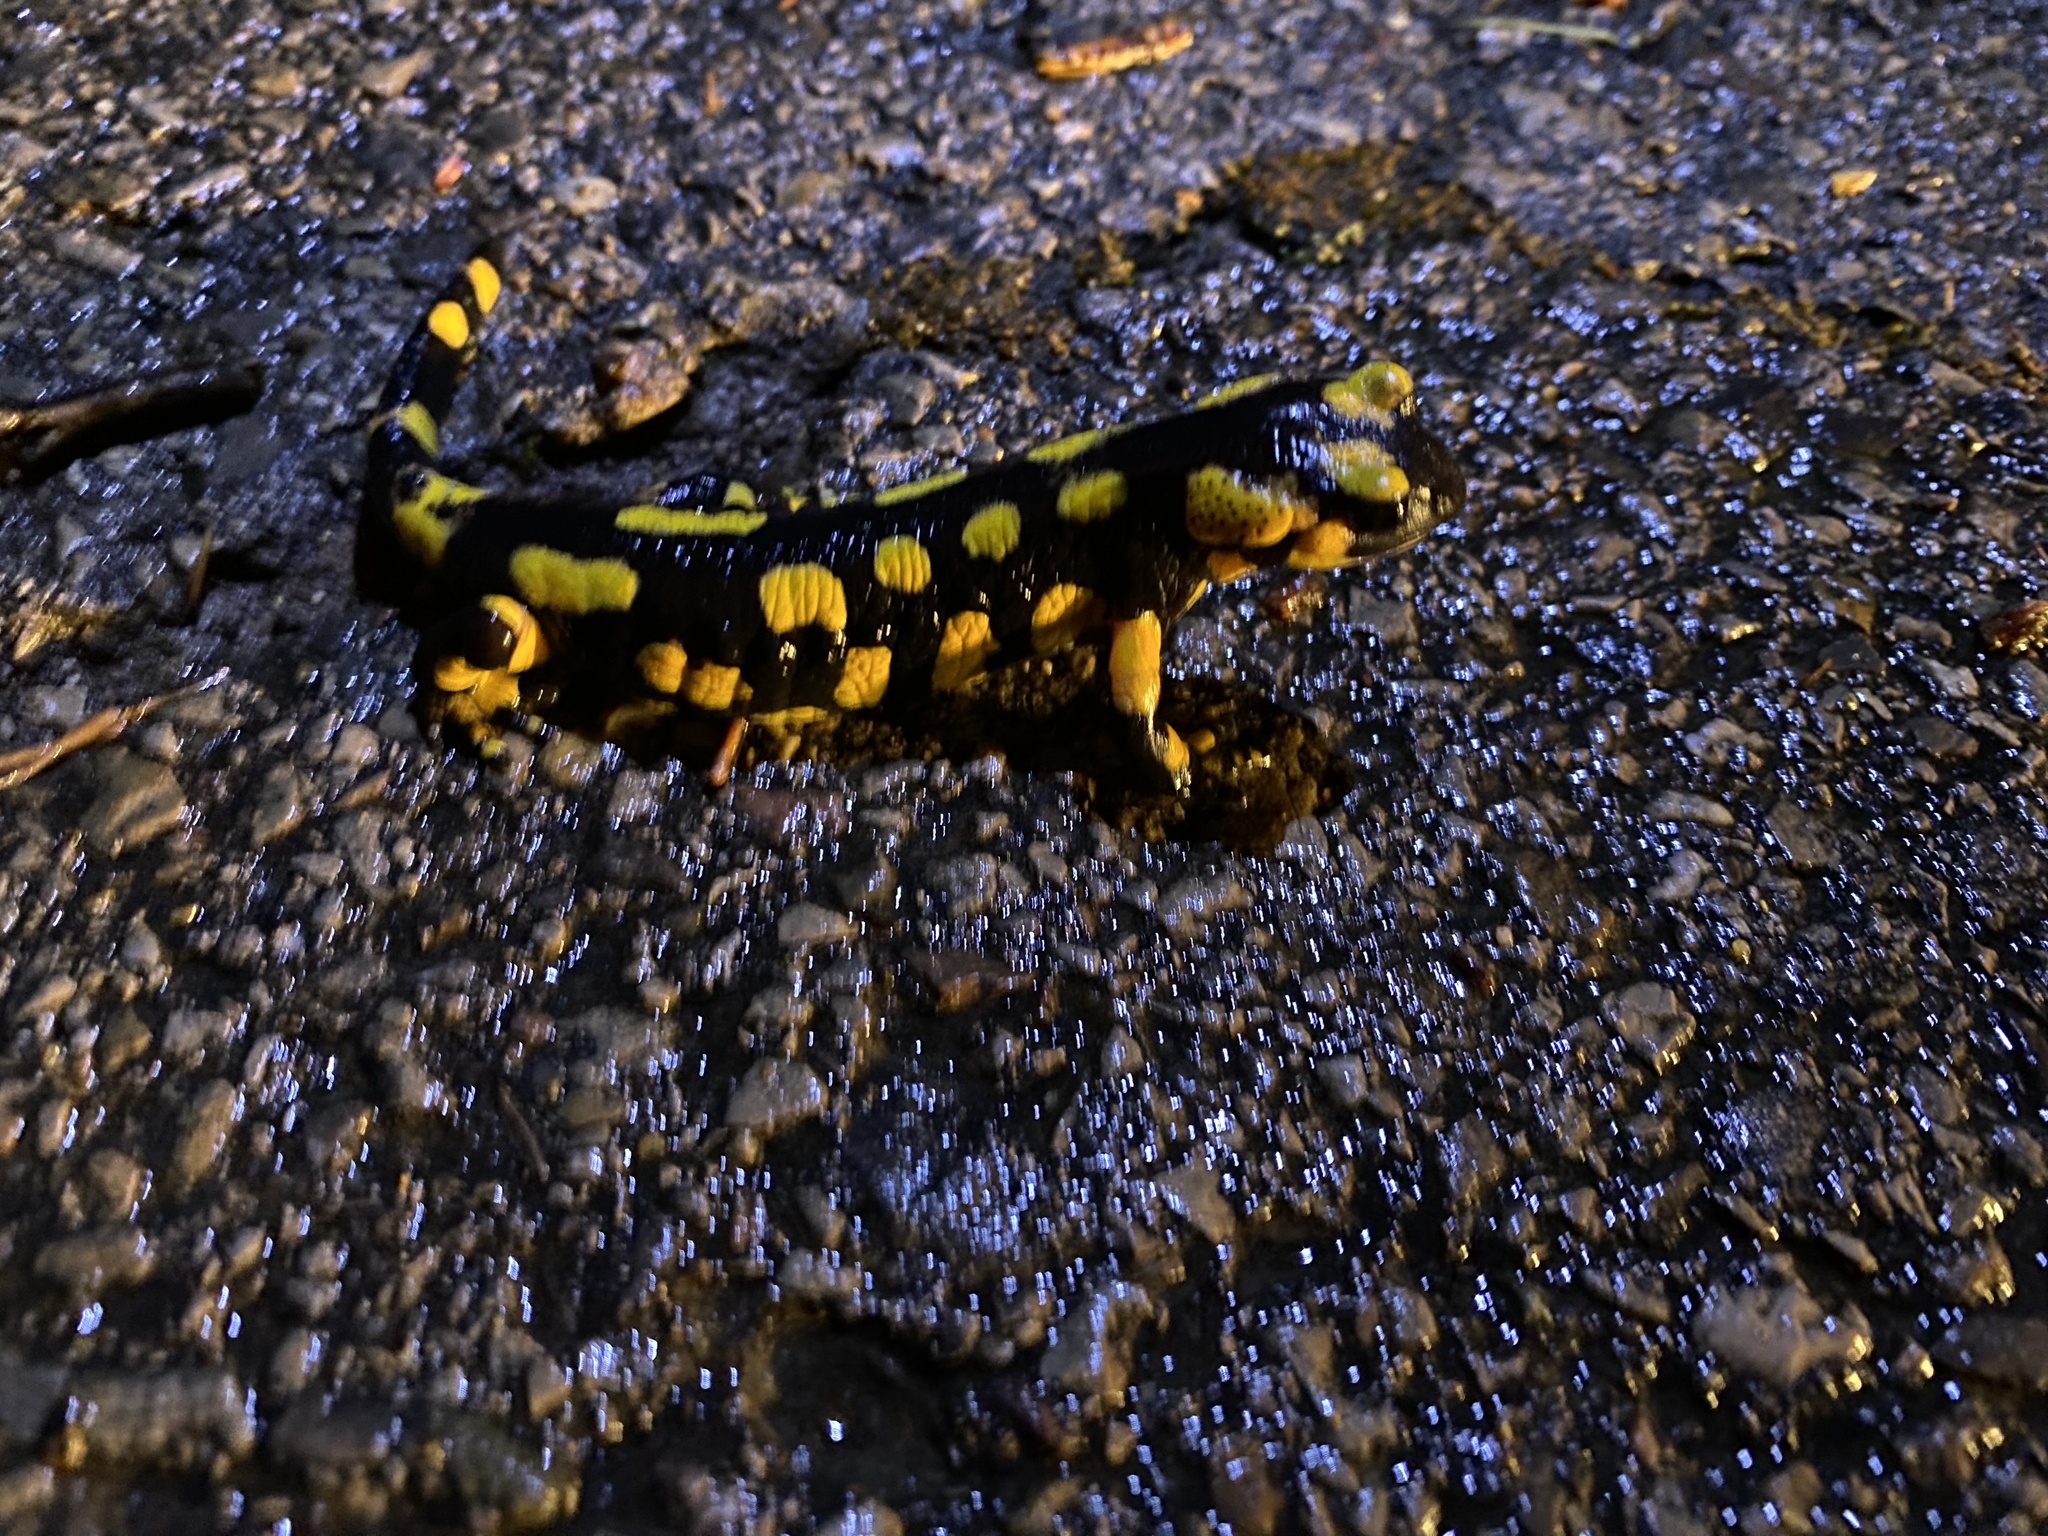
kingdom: Animalia
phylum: Chordata
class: Amphibia
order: Caudata
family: Salamandridae
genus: Salamandra
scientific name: Salamandra salamandra
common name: Fire salamander
